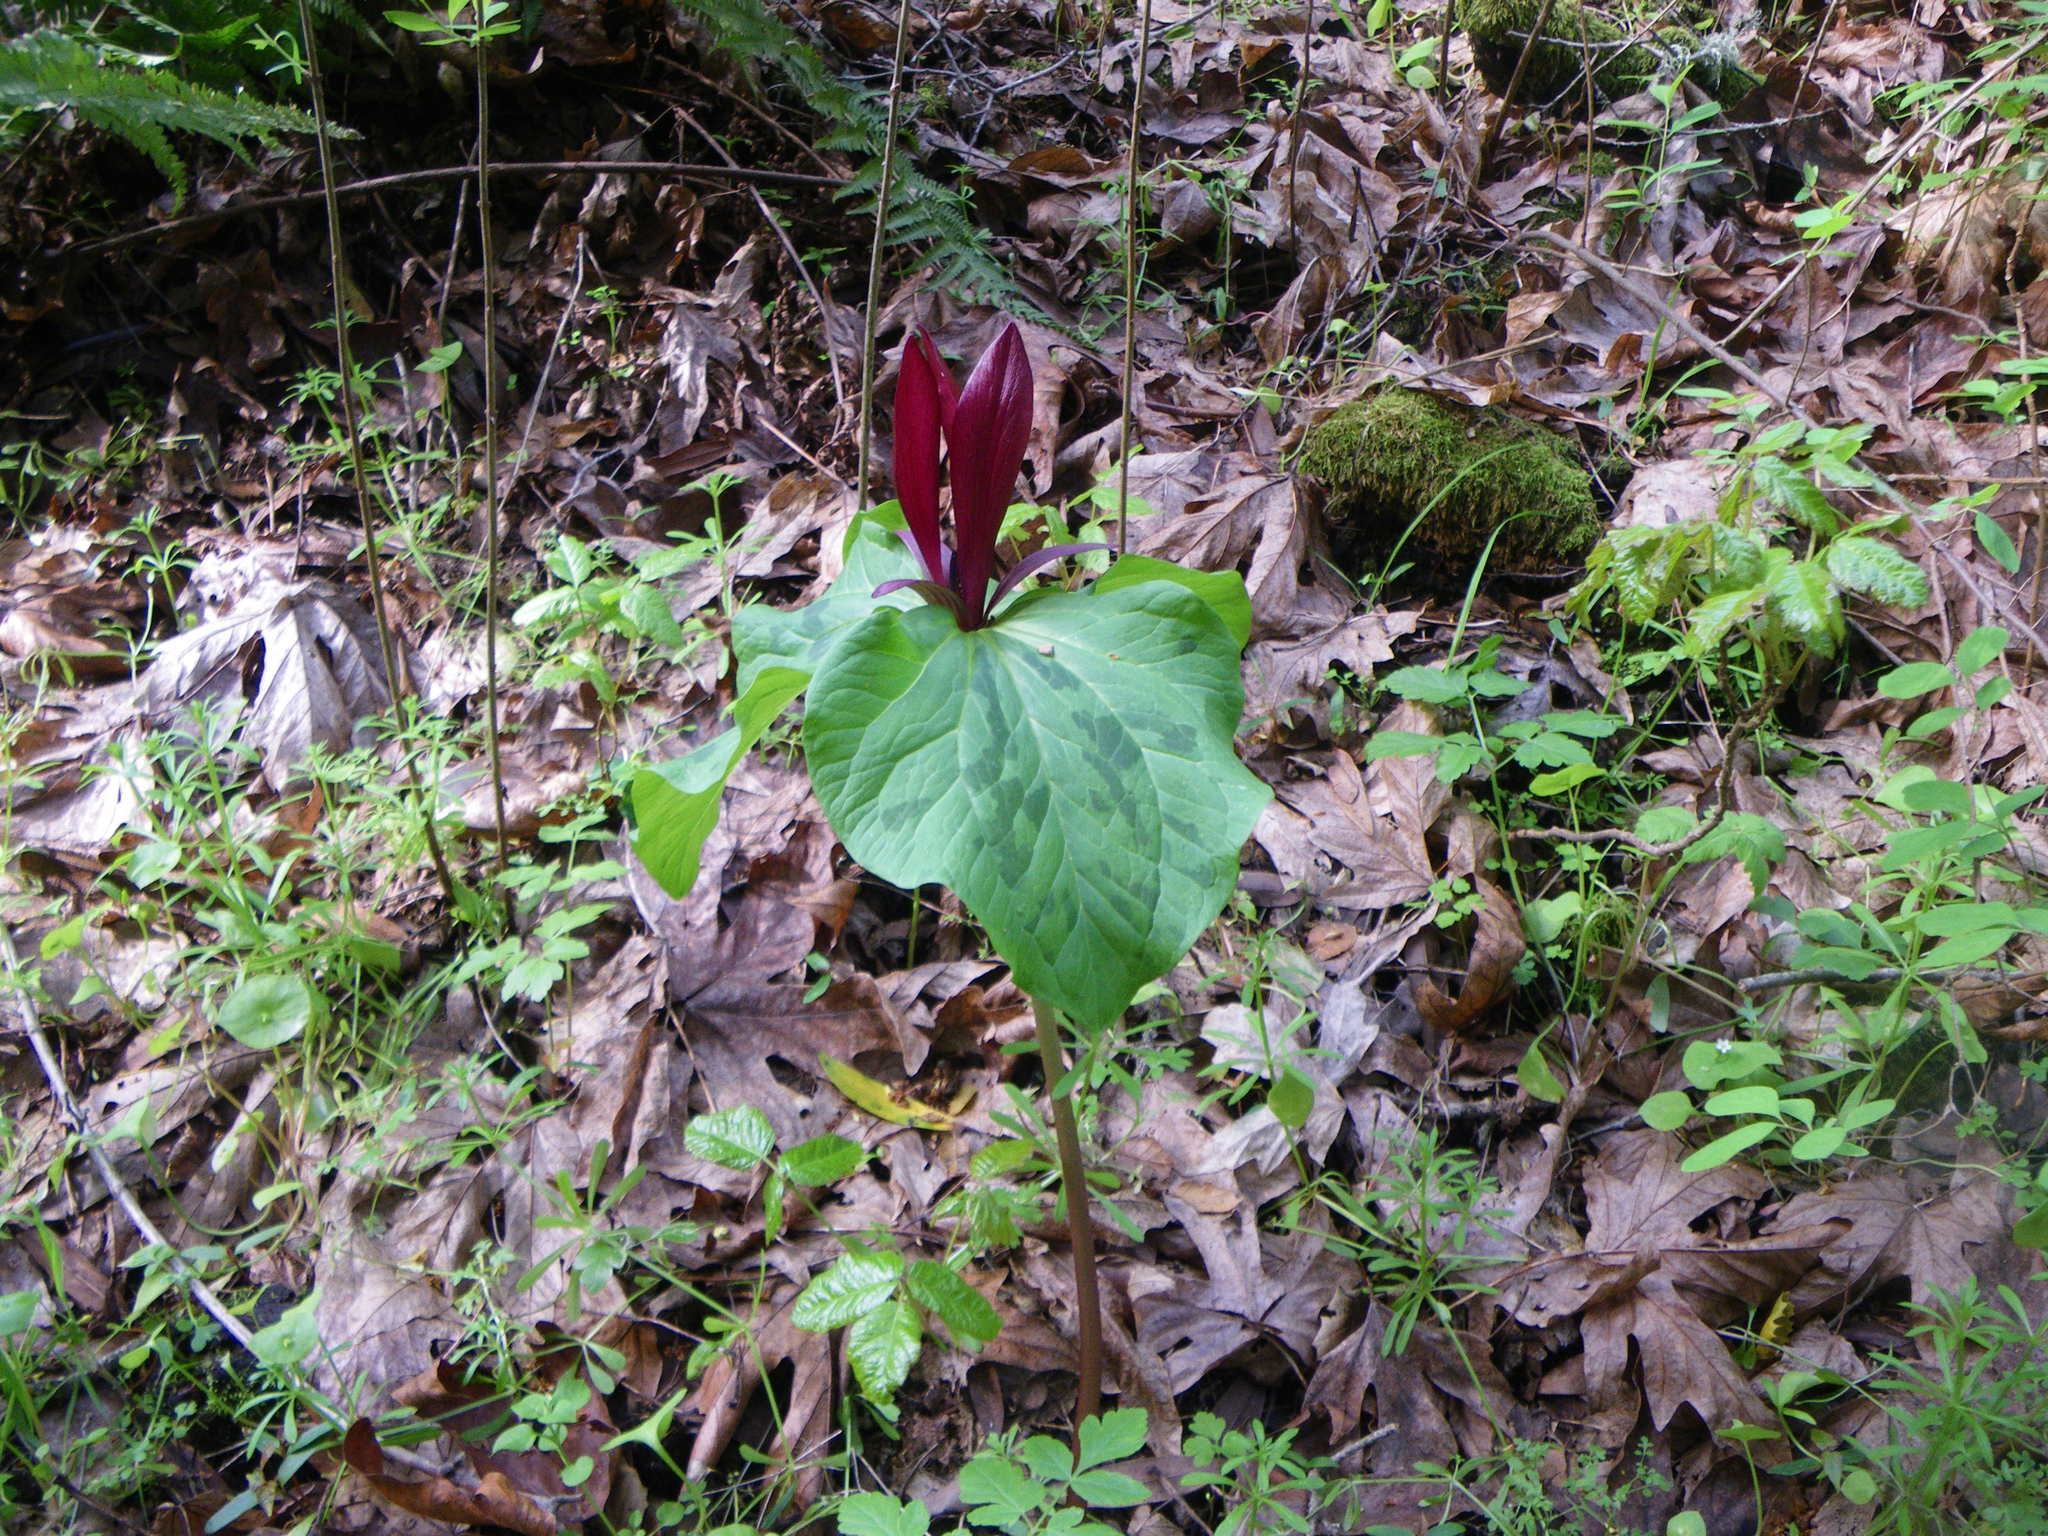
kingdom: Plantae
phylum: Tracheophyta
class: Liliopsida
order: Liliales
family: Melanthiaceae
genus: Trillium
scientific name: Trillium chloropetalum
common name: Giant trillium
